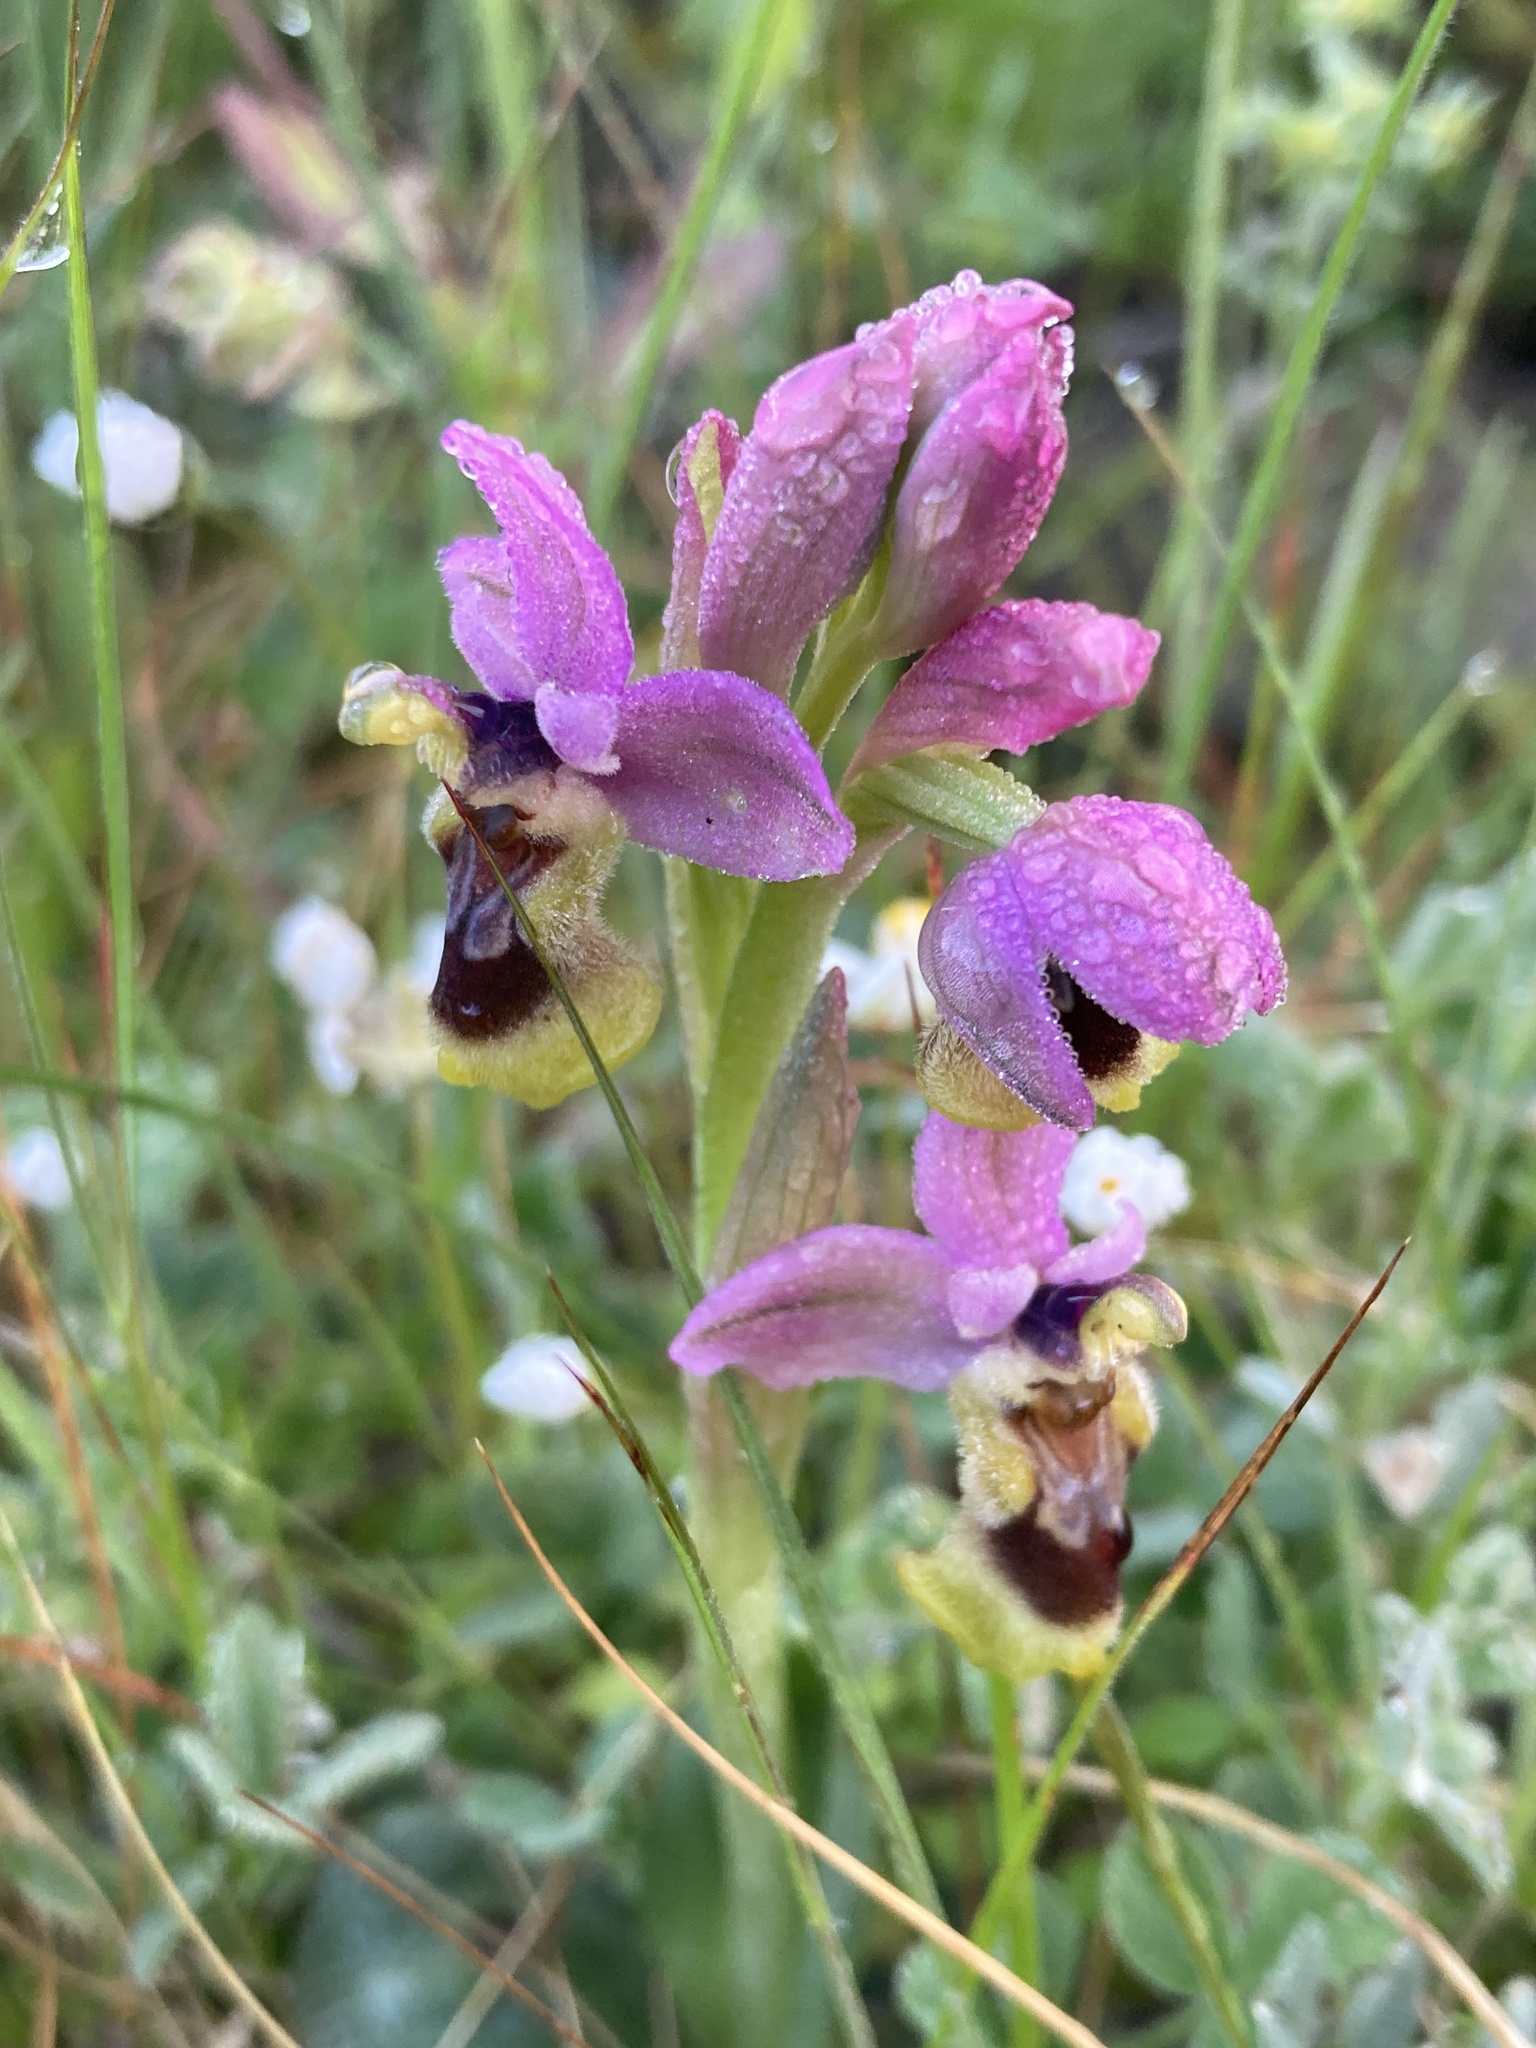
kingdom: Plantae
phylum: Tracheophyta
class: Liliopsida
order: Asparagales
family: Orchidaceae
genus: Ophrys
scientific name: Ophrys tenthredinifera
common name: Sawfly orchid
